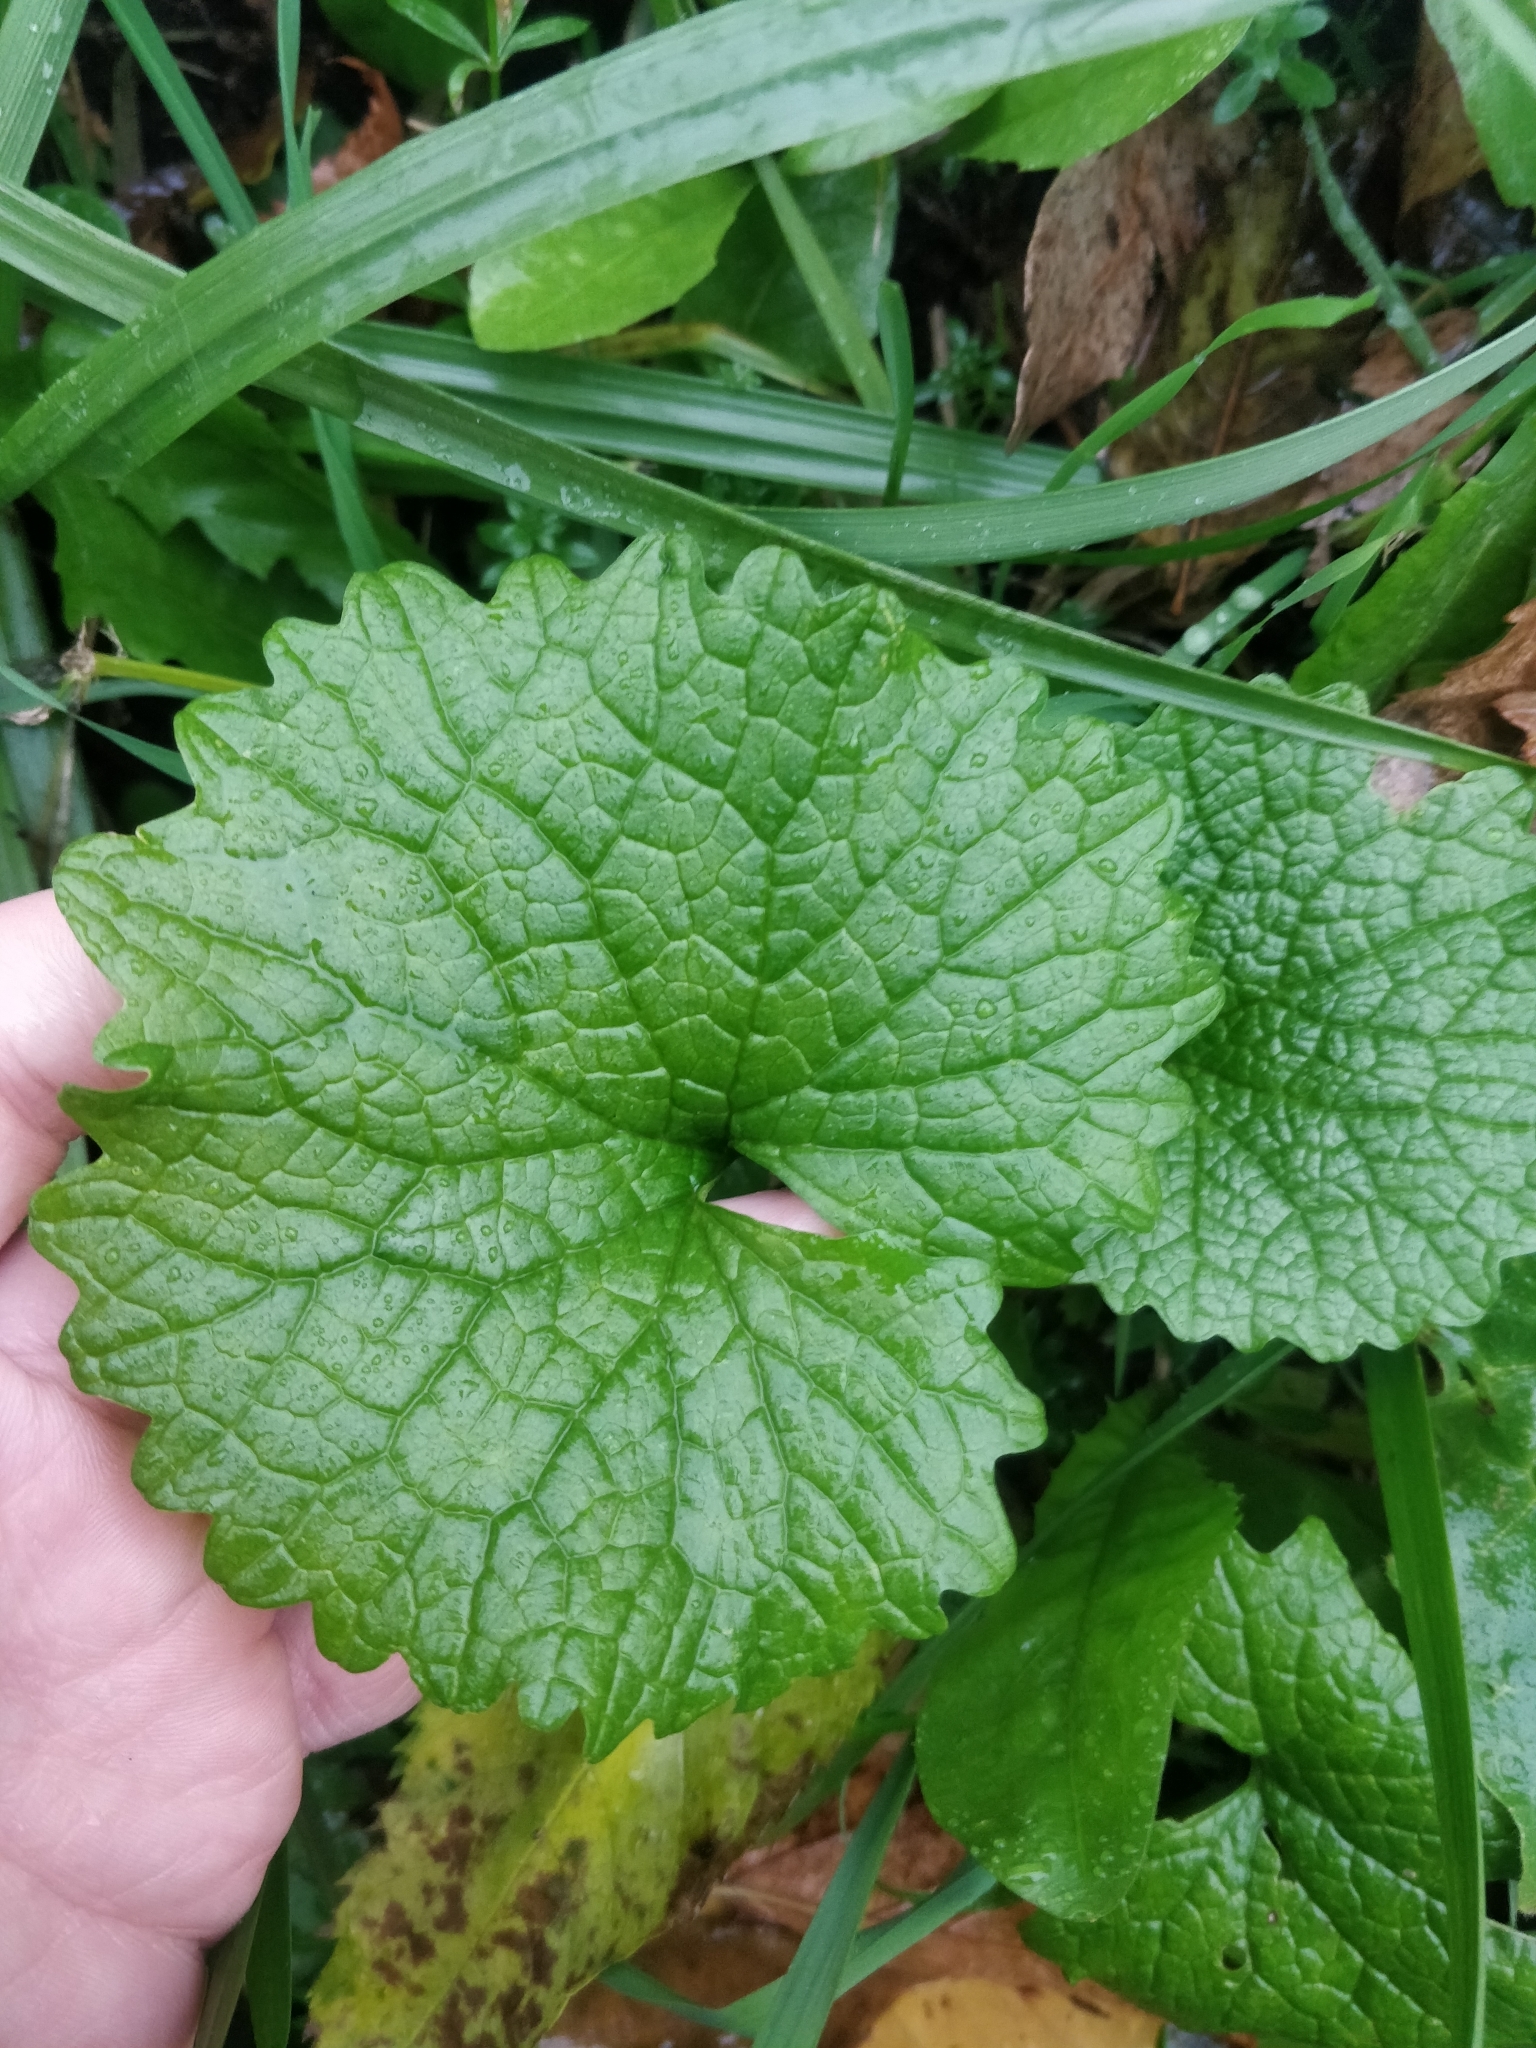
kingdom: Plantae
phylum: Tracheophyta
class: Magnoliopsida
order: Brassicales
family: Brassicaceae
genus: Alliaria
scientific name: Alliaria petiolata
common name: Garlic mustard
